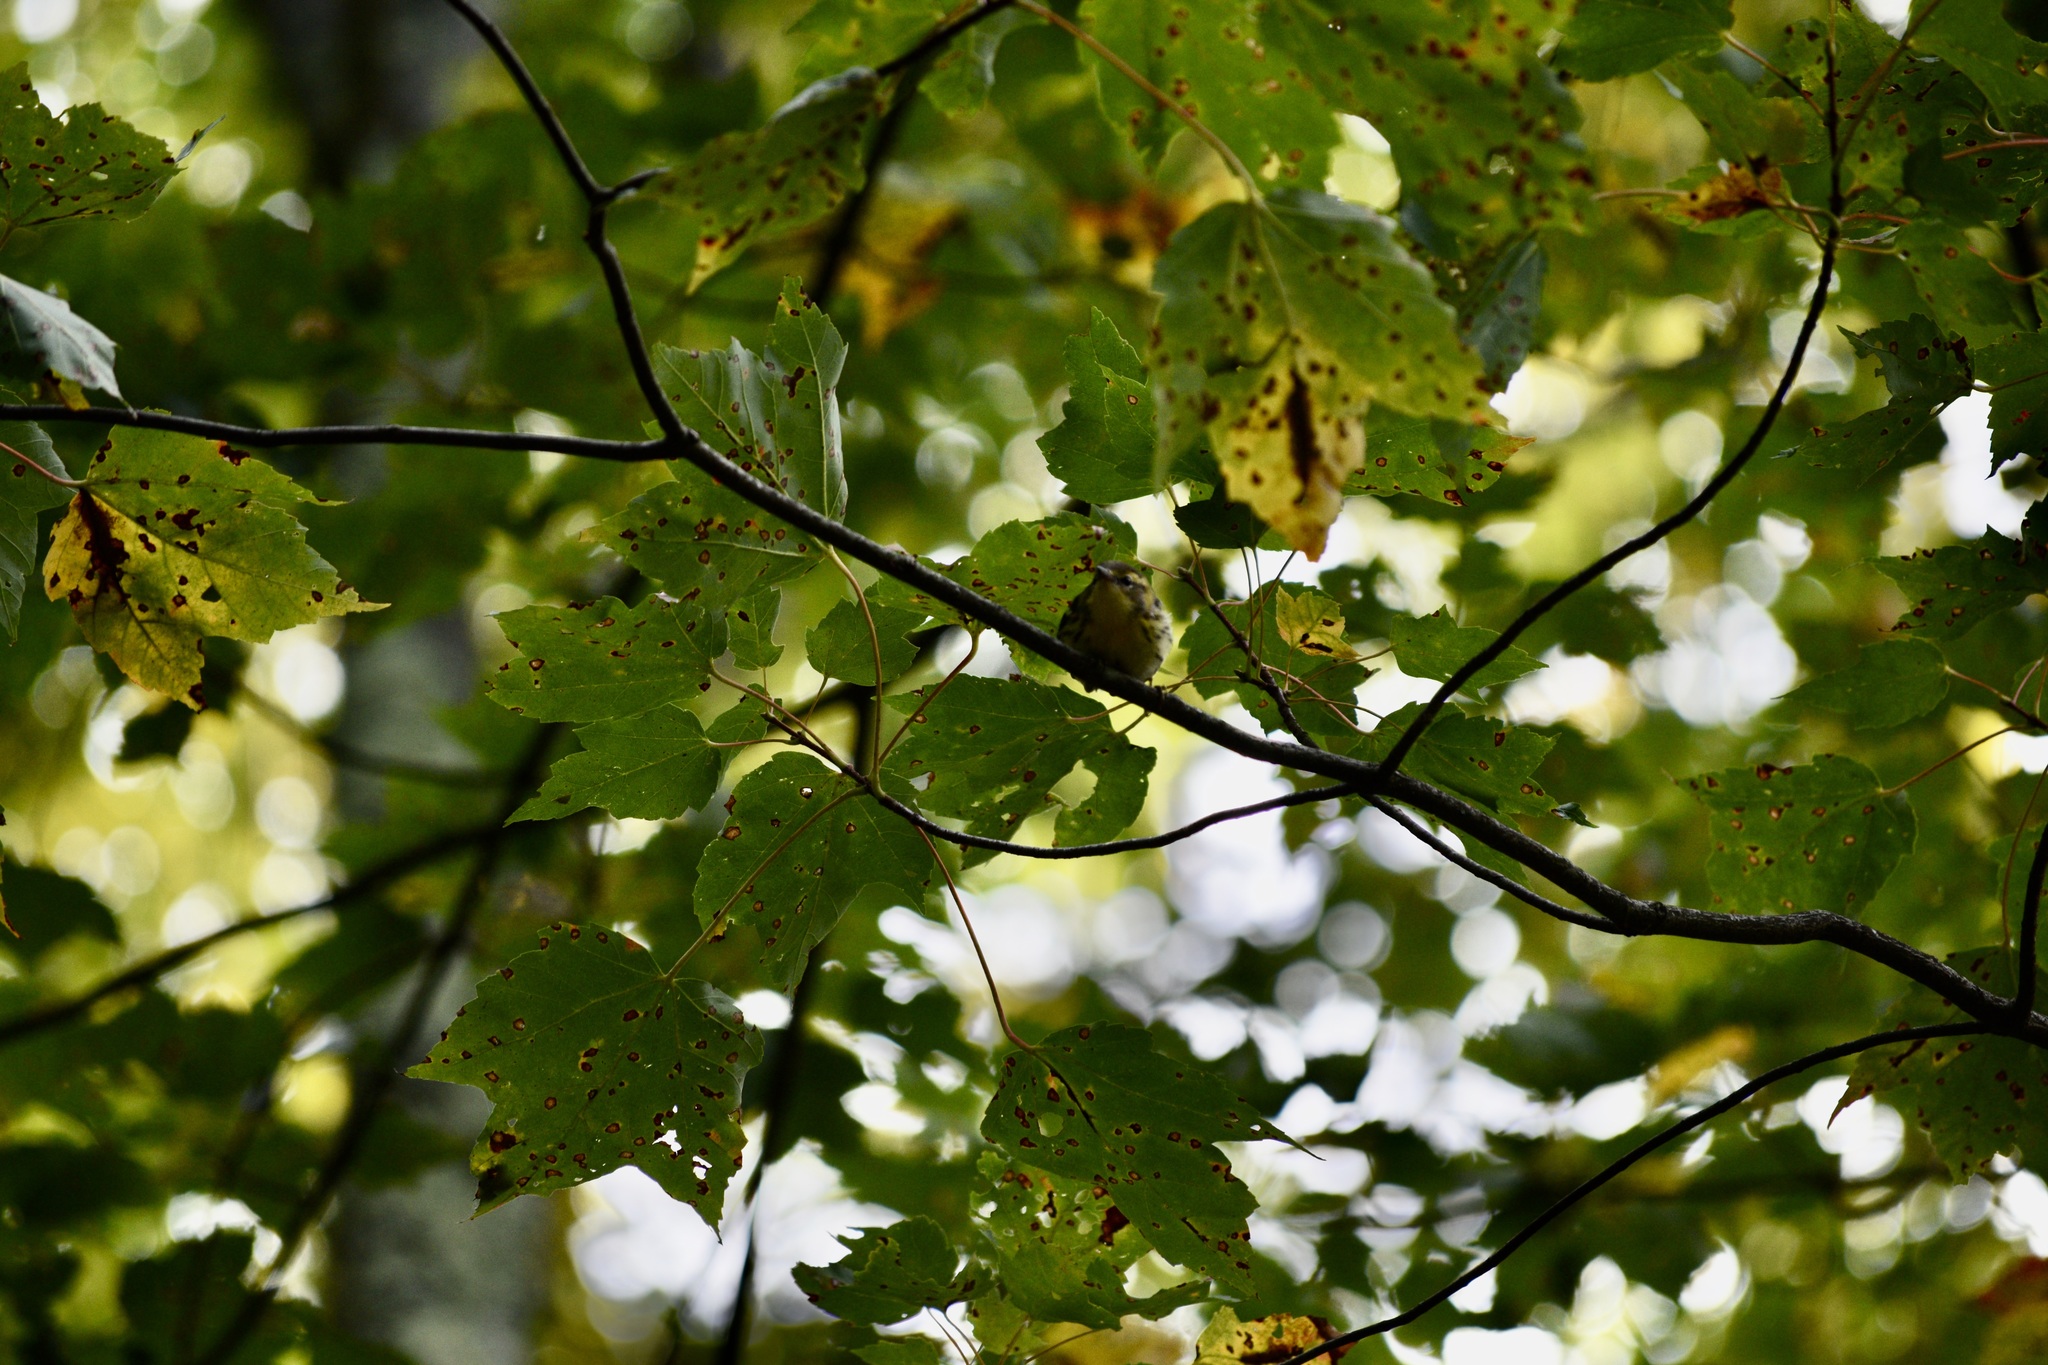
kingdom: Animalia
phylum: Chordata
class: Aves
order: Passeriformes
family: Parulidae
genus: Setophaga
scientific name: Setophaga fusca
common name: Blackburnian warbler
